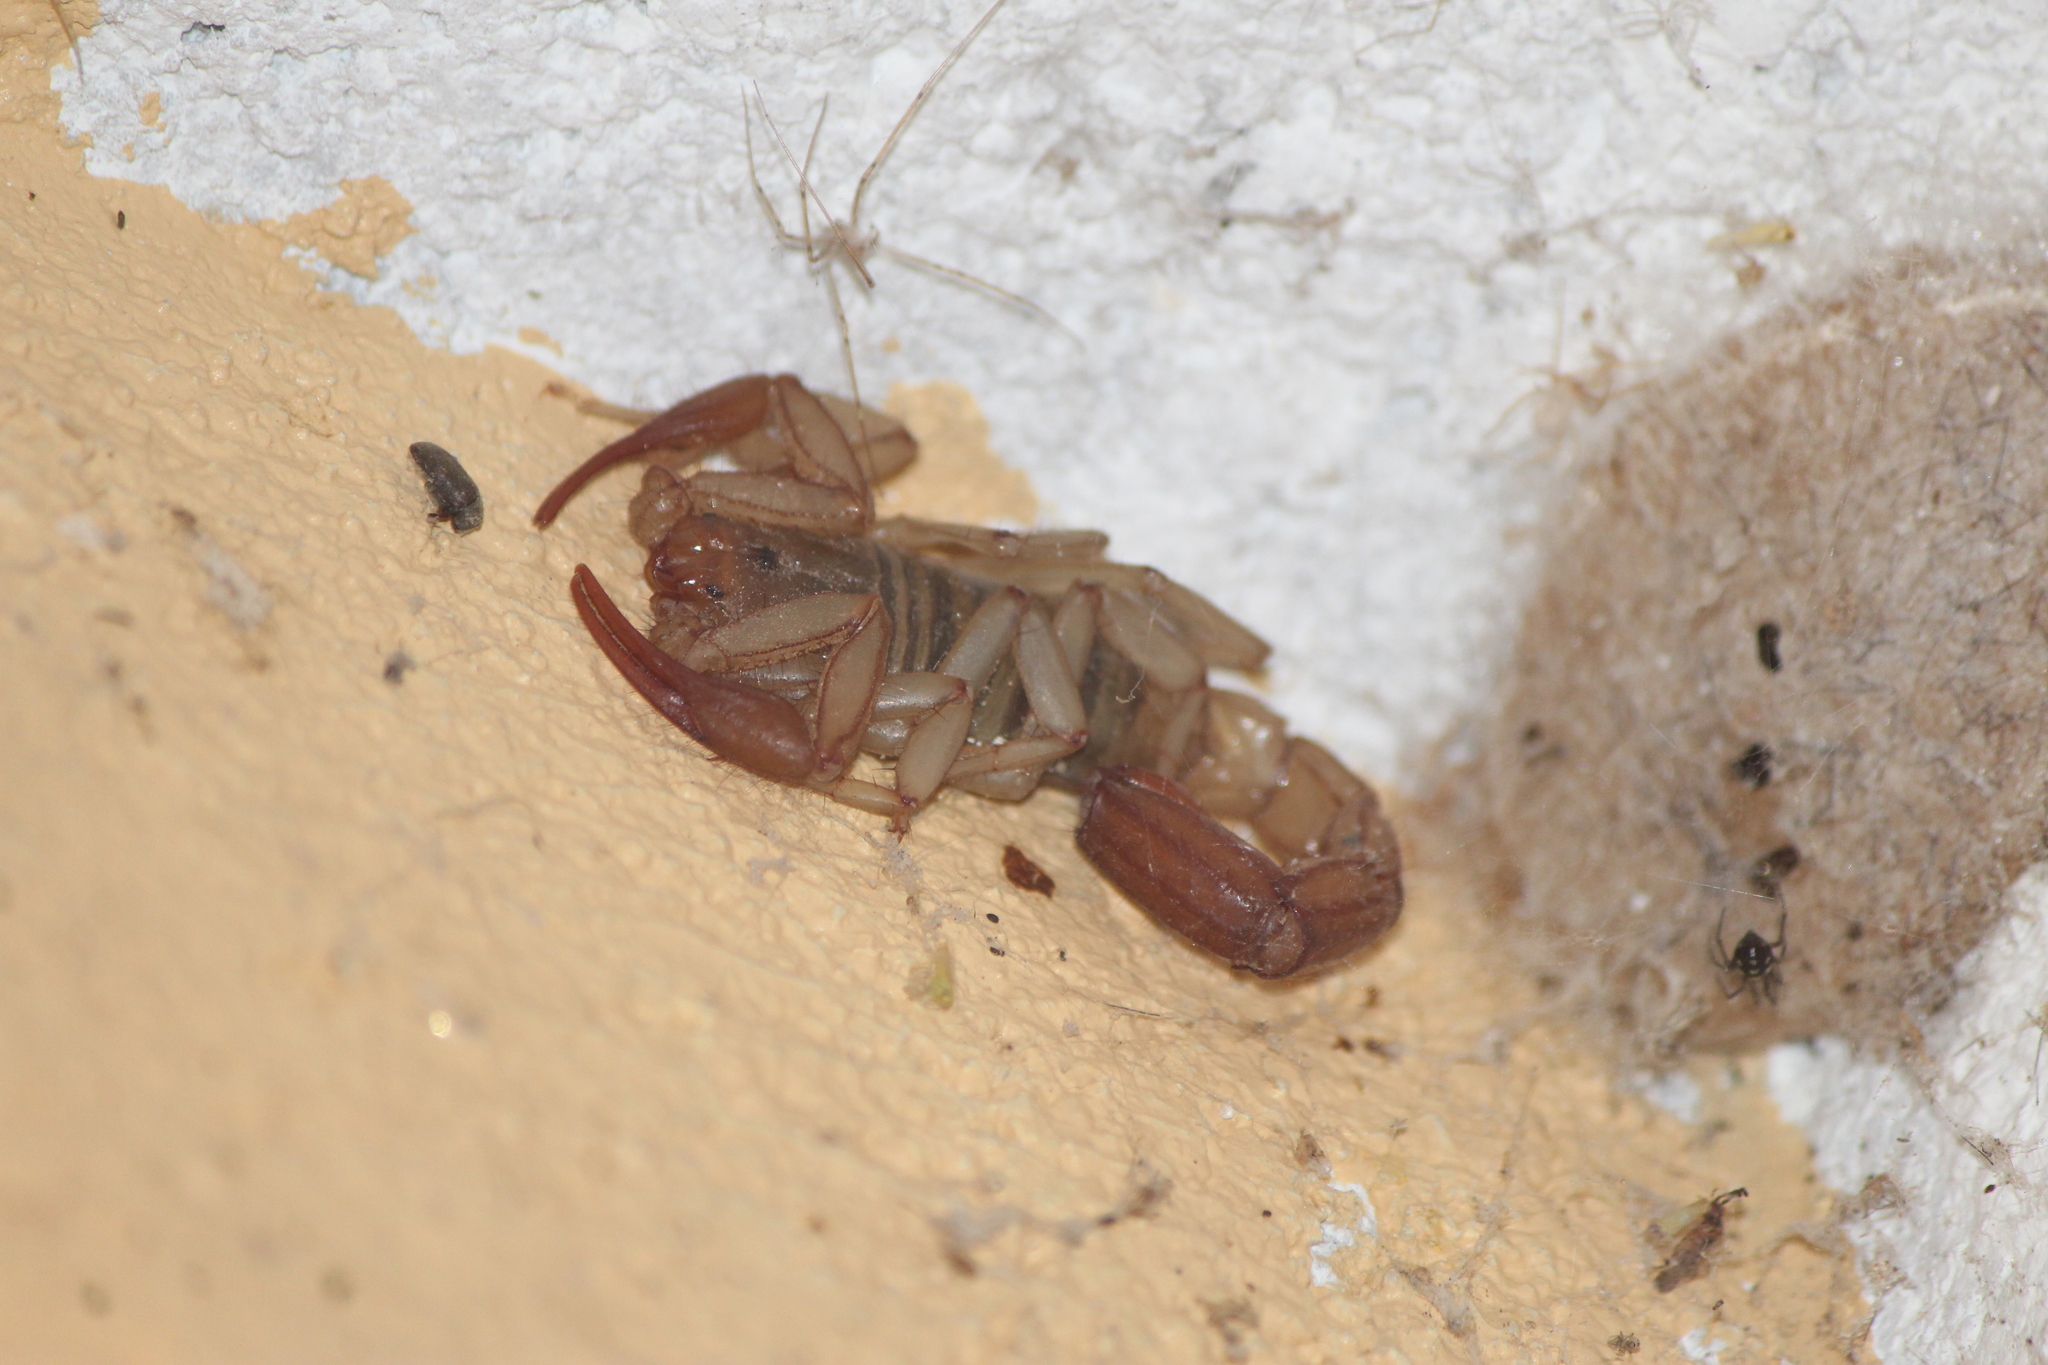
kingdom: Animalia
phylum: Arthropoda
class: Arachnida
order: Scorpiones
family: Vaejovidae
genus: Franckeus
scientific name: Franckeus nitidulus
